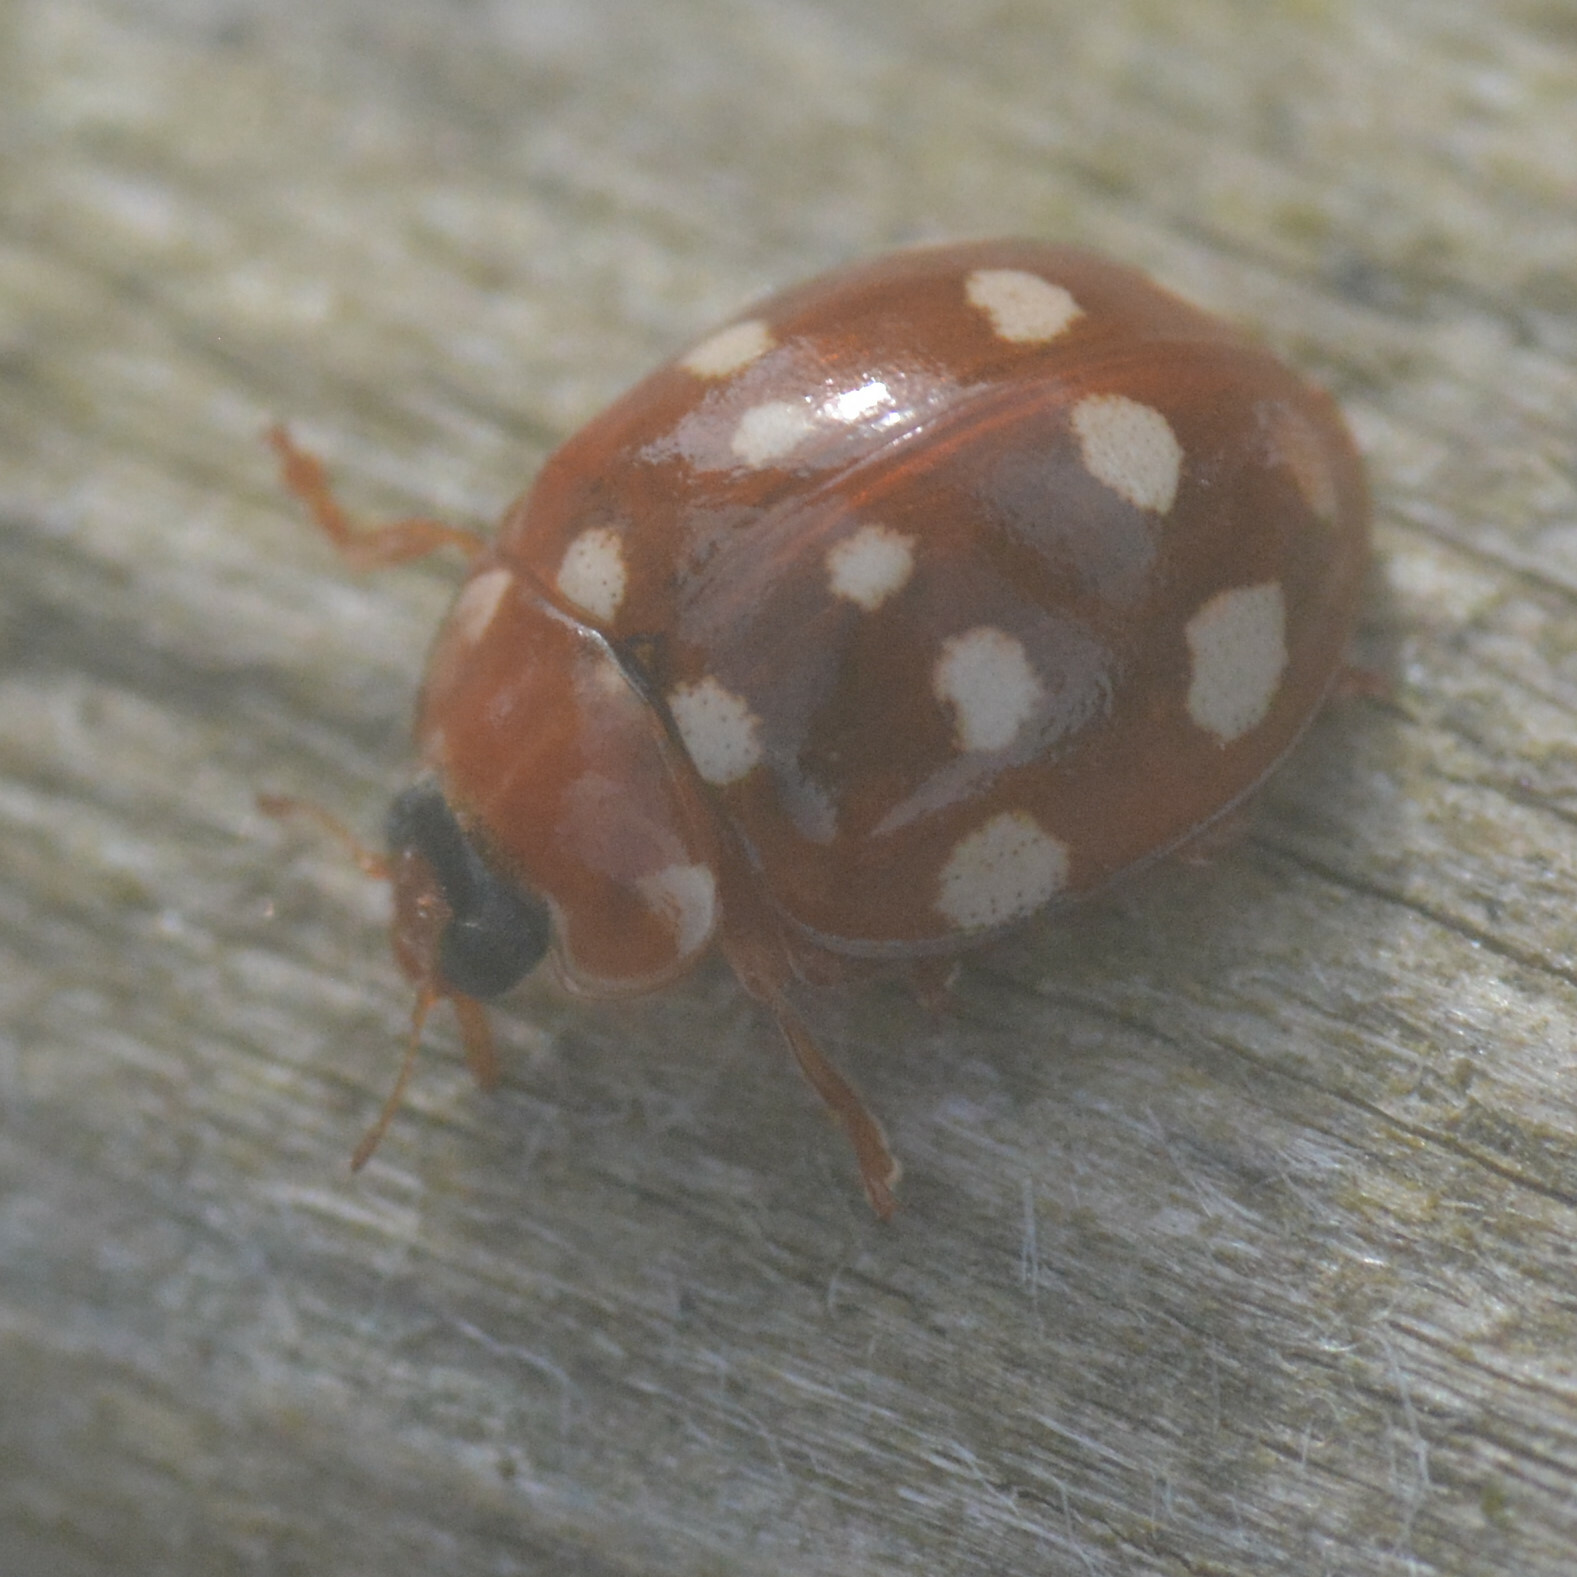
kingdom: Animalia
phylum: Arthropoda
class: Insecta
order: Coleoptera
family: Coccinellidae
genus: Calvia
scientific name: Calvia quatuordecimguttata
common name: Cream-spot ladybird
